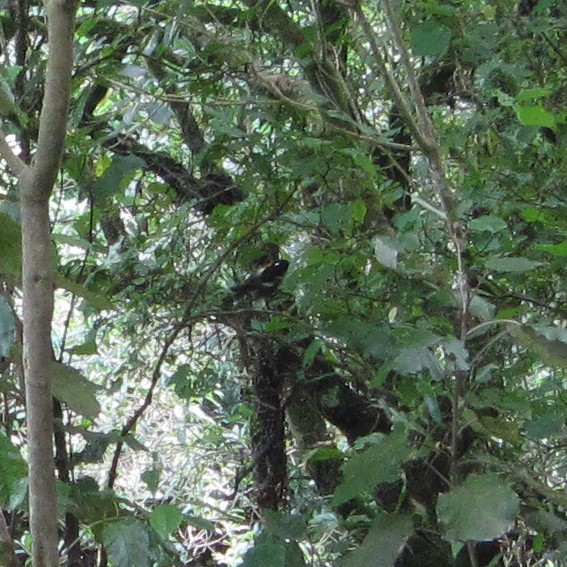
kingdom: Animalia
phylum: Chordata
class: Aves
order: Passeriformes
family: Notiomystidae
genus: Notiomystis
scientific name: Notiomystis cincta
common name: Stitchbird
